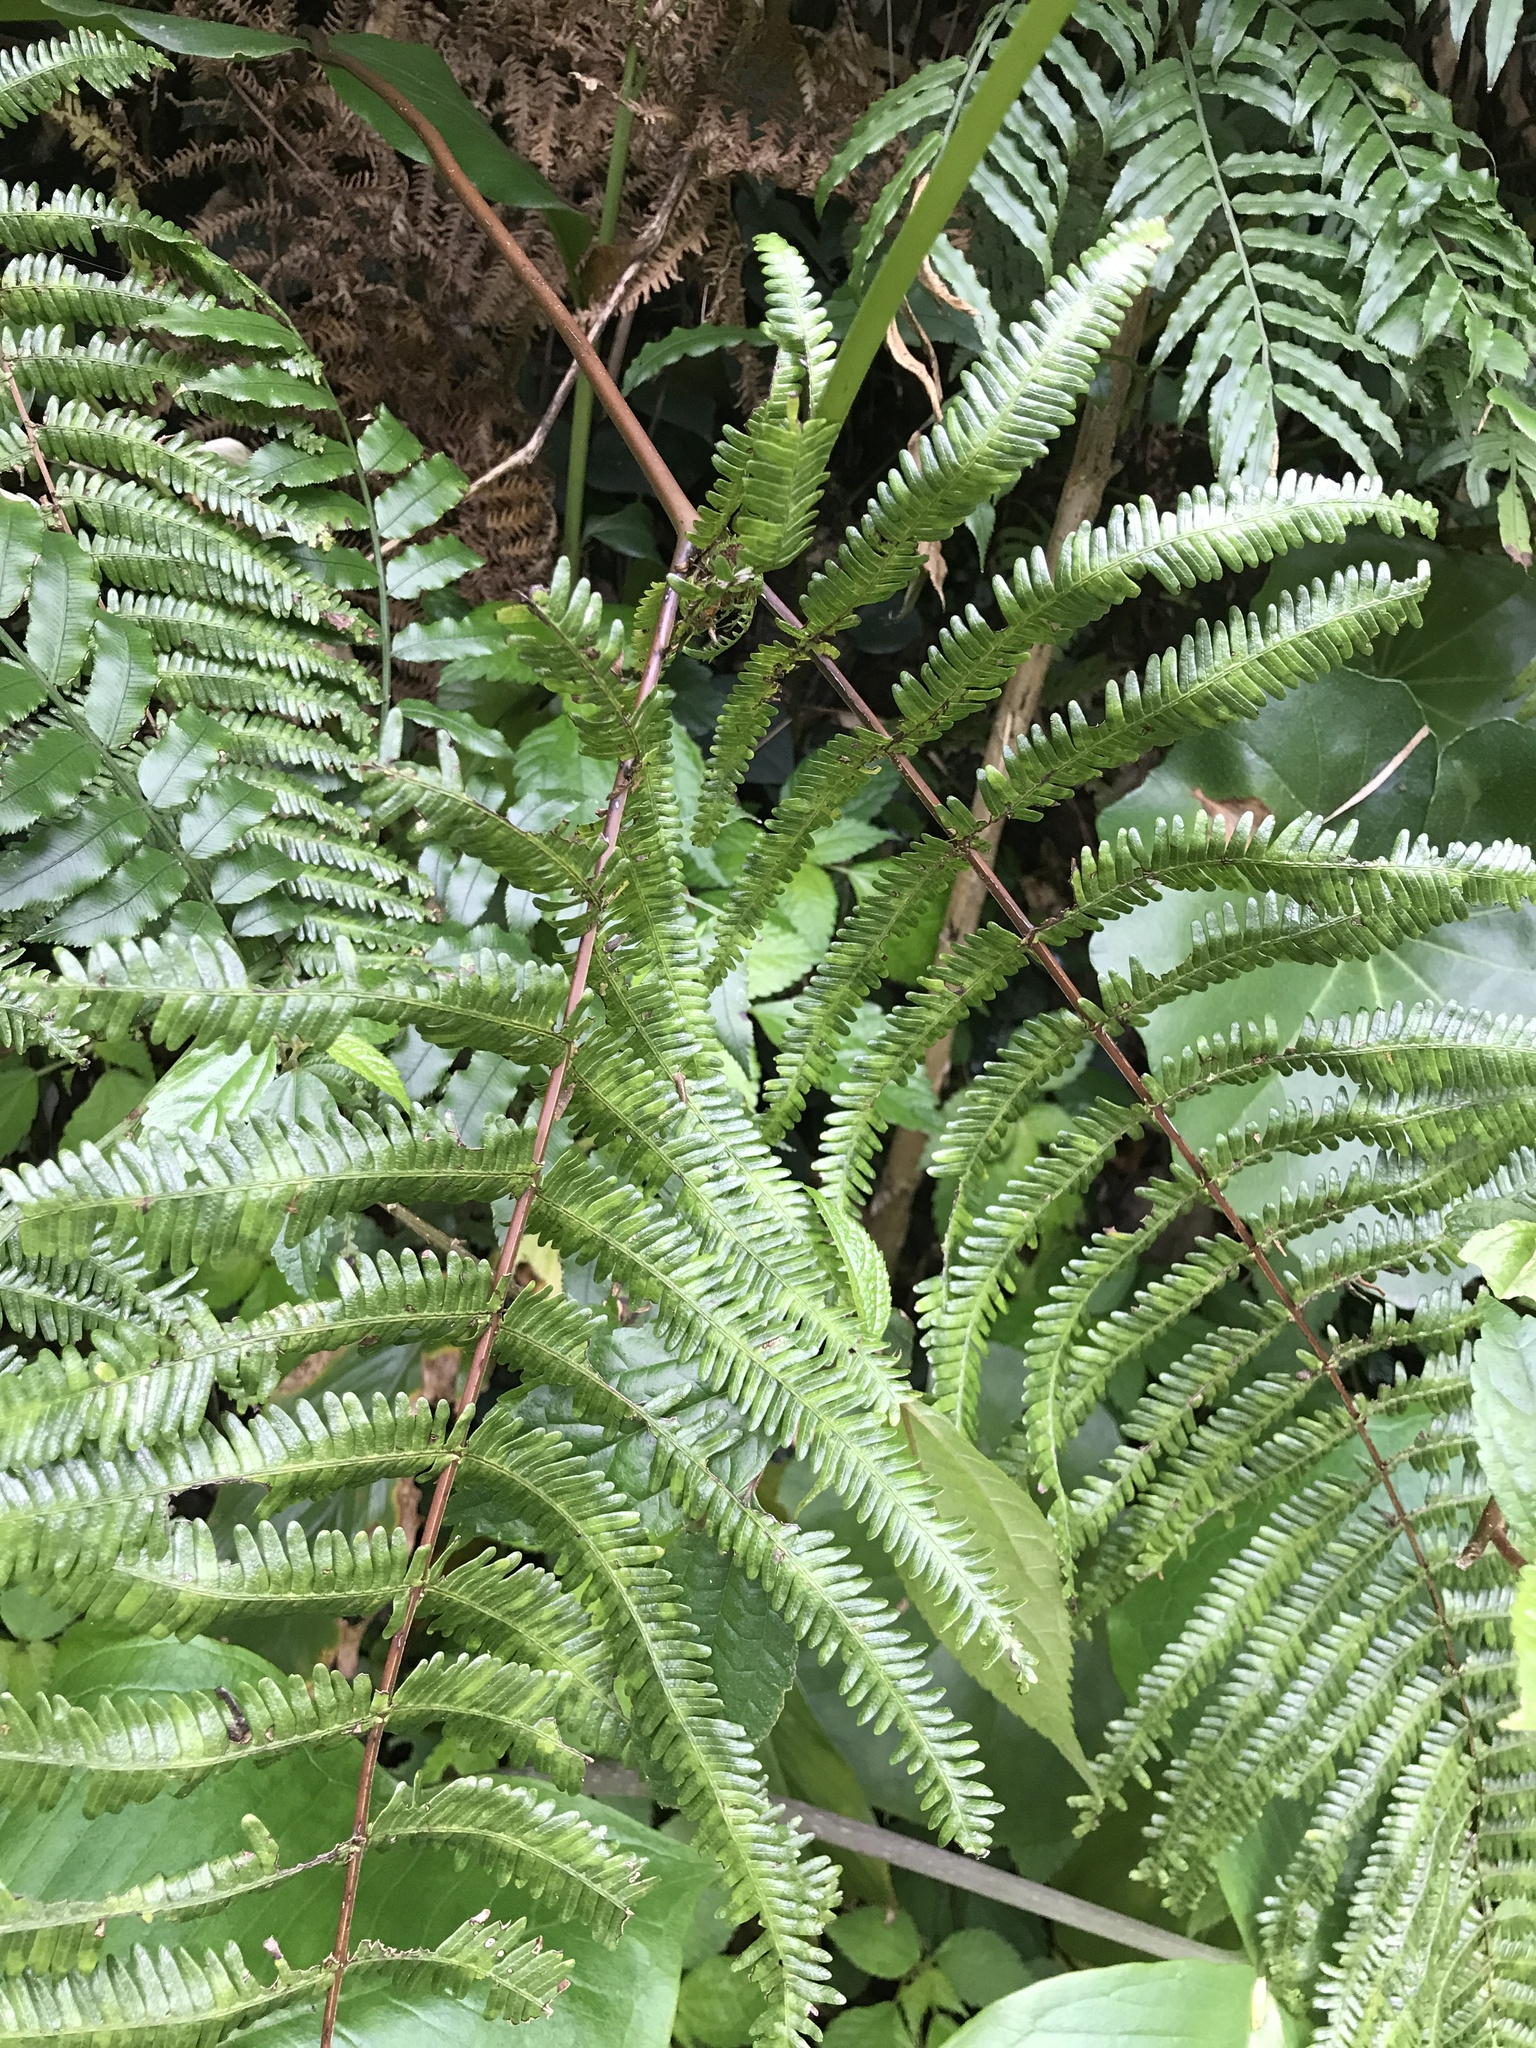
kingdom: Plantae
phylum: Tracheophyta
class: Polypodiopsida
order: Gleicheniales
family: Gleicheniaceae
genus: Diplopterygium
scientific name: Diplopterygium glaucum
